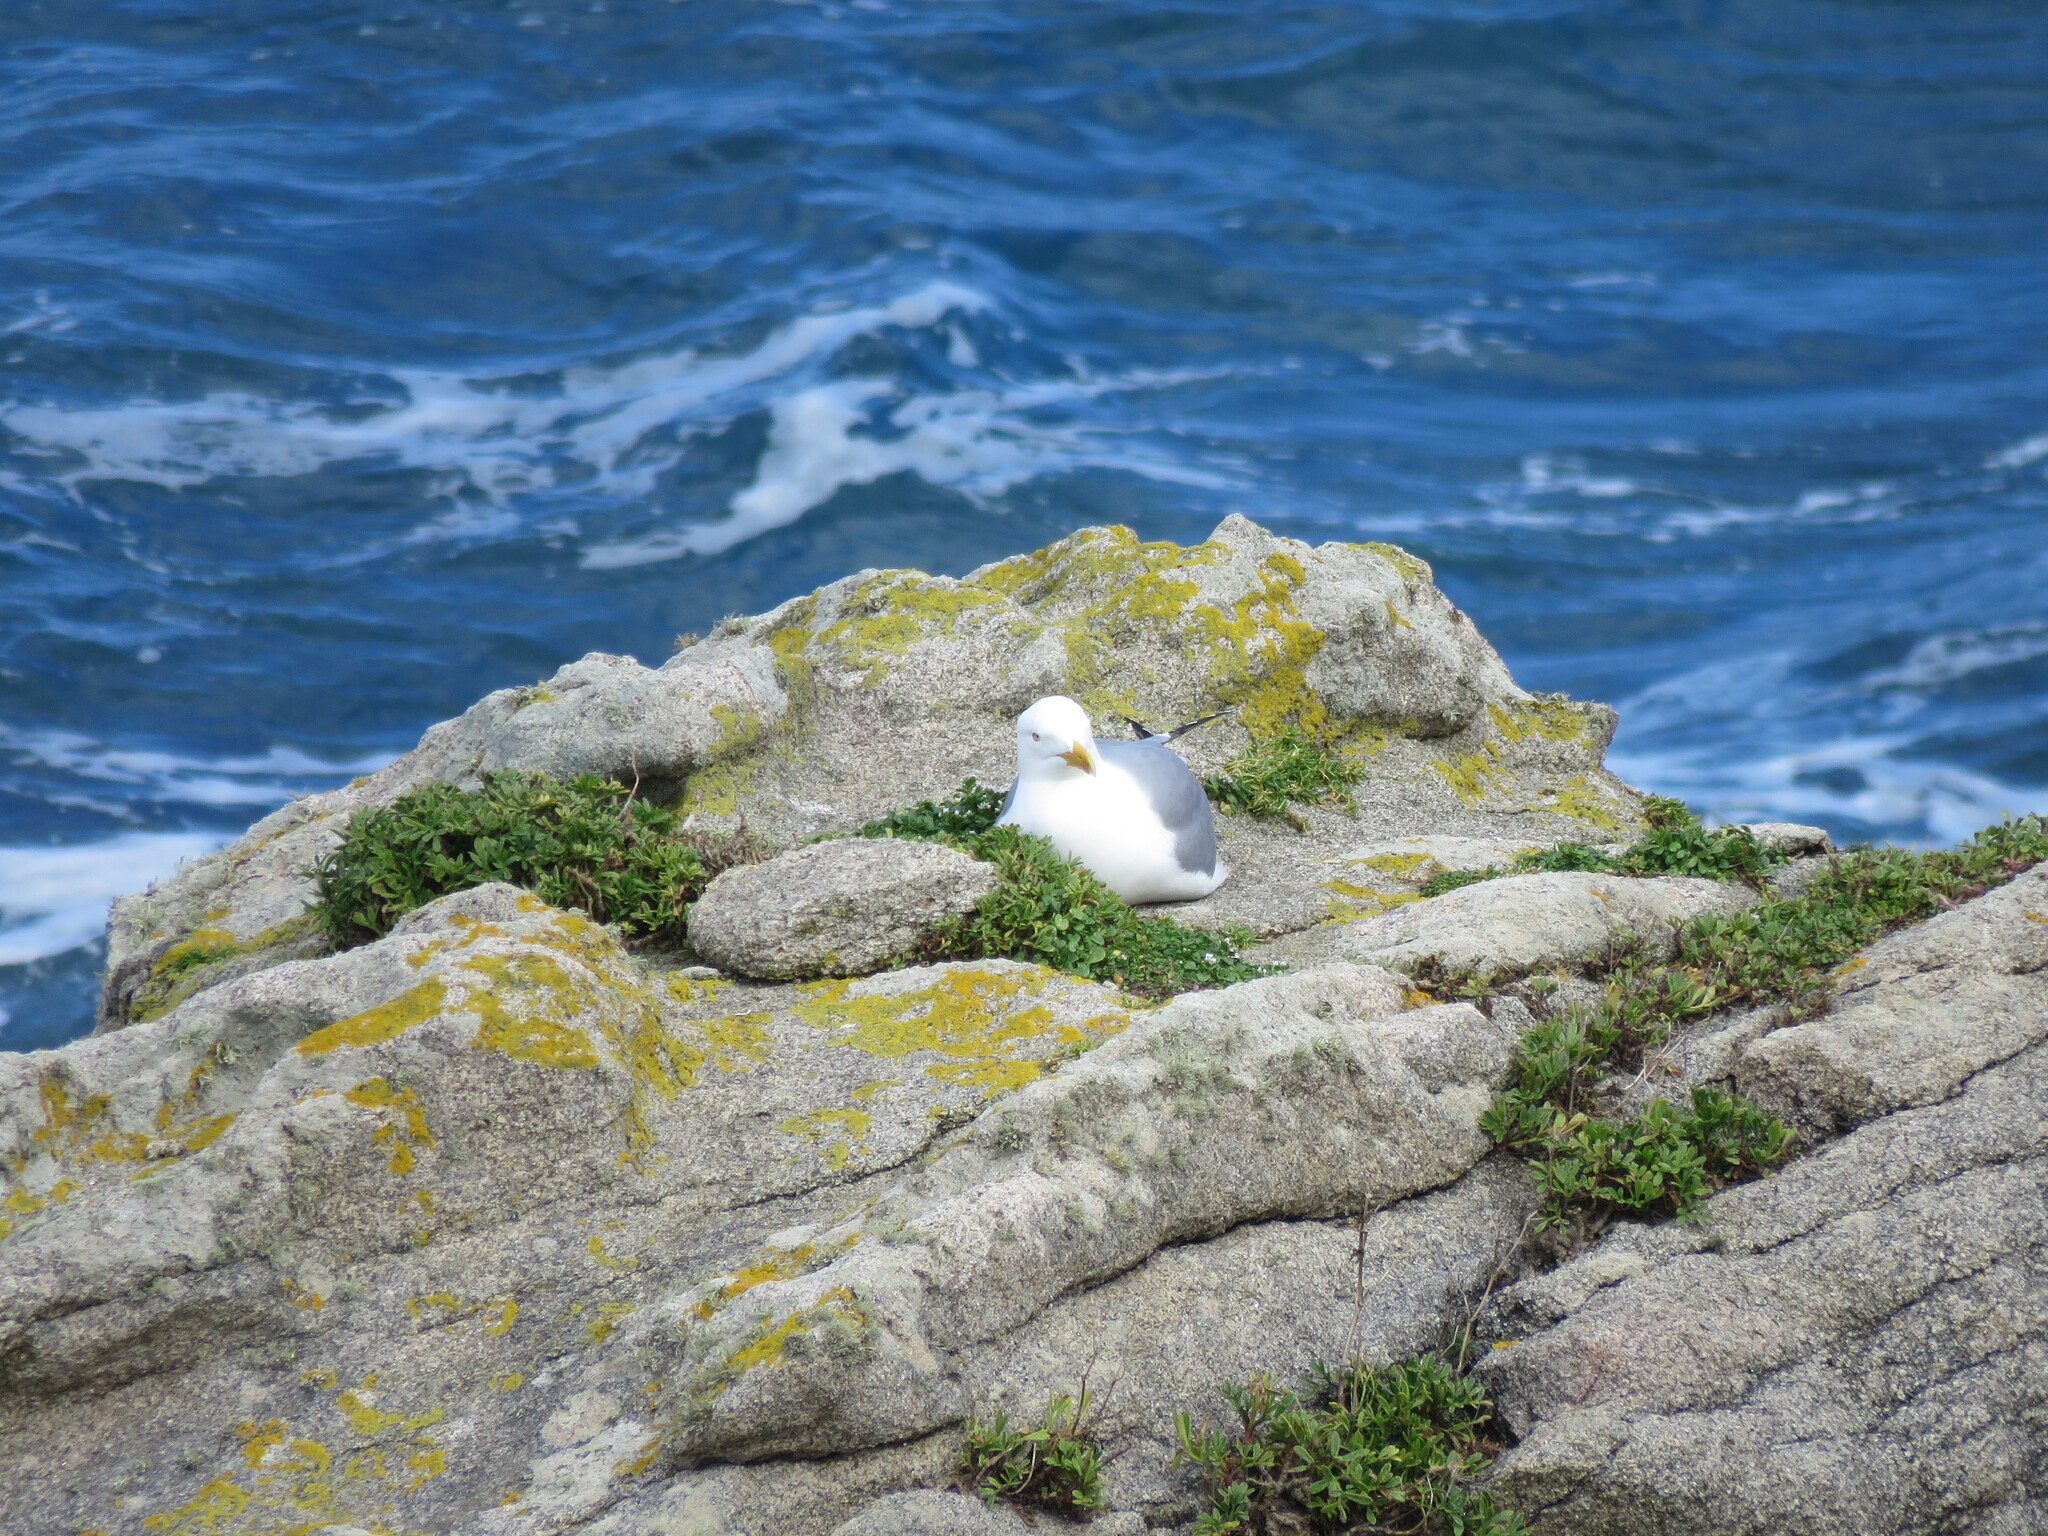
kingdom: Animalia
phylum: Chordata
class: Aves
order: Charadriiformes
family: Laridae
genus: Larus
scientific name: Larus michahellis
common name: Yellow-legged gull
